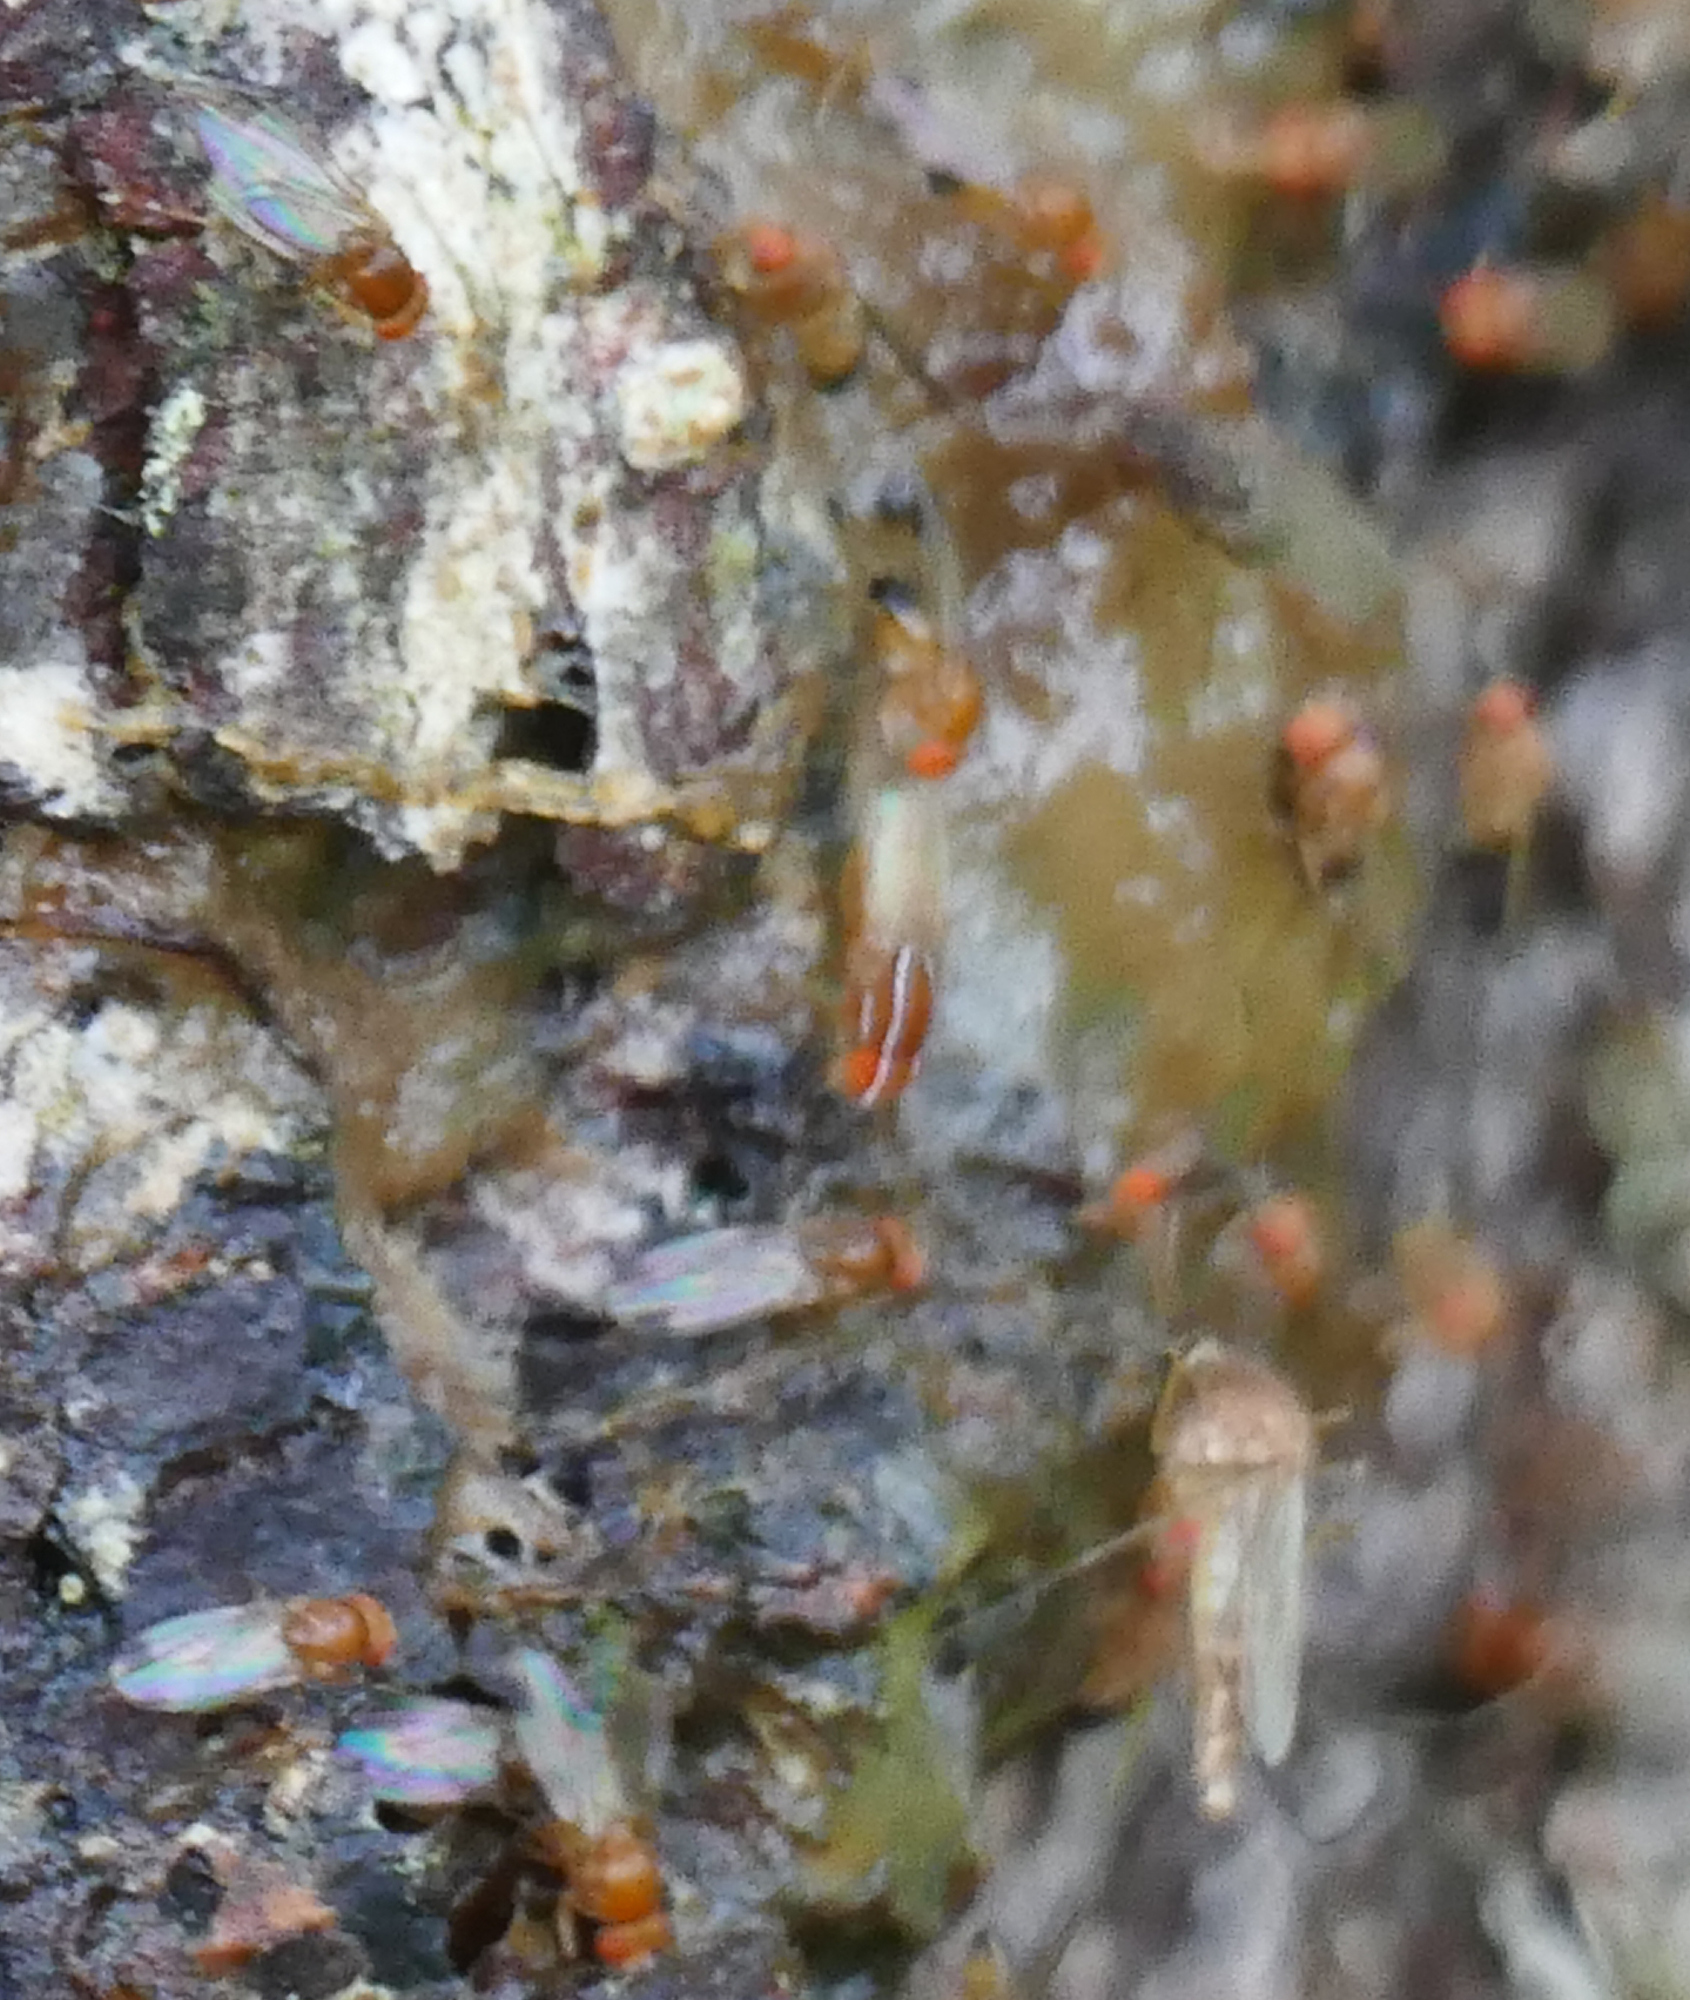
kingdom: Animalia
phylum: Arthropoda
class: Insecta
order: Diptera
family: Drosophilidae
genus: Zaprionus
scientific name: Zaprionus indianus
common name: African fig fly
